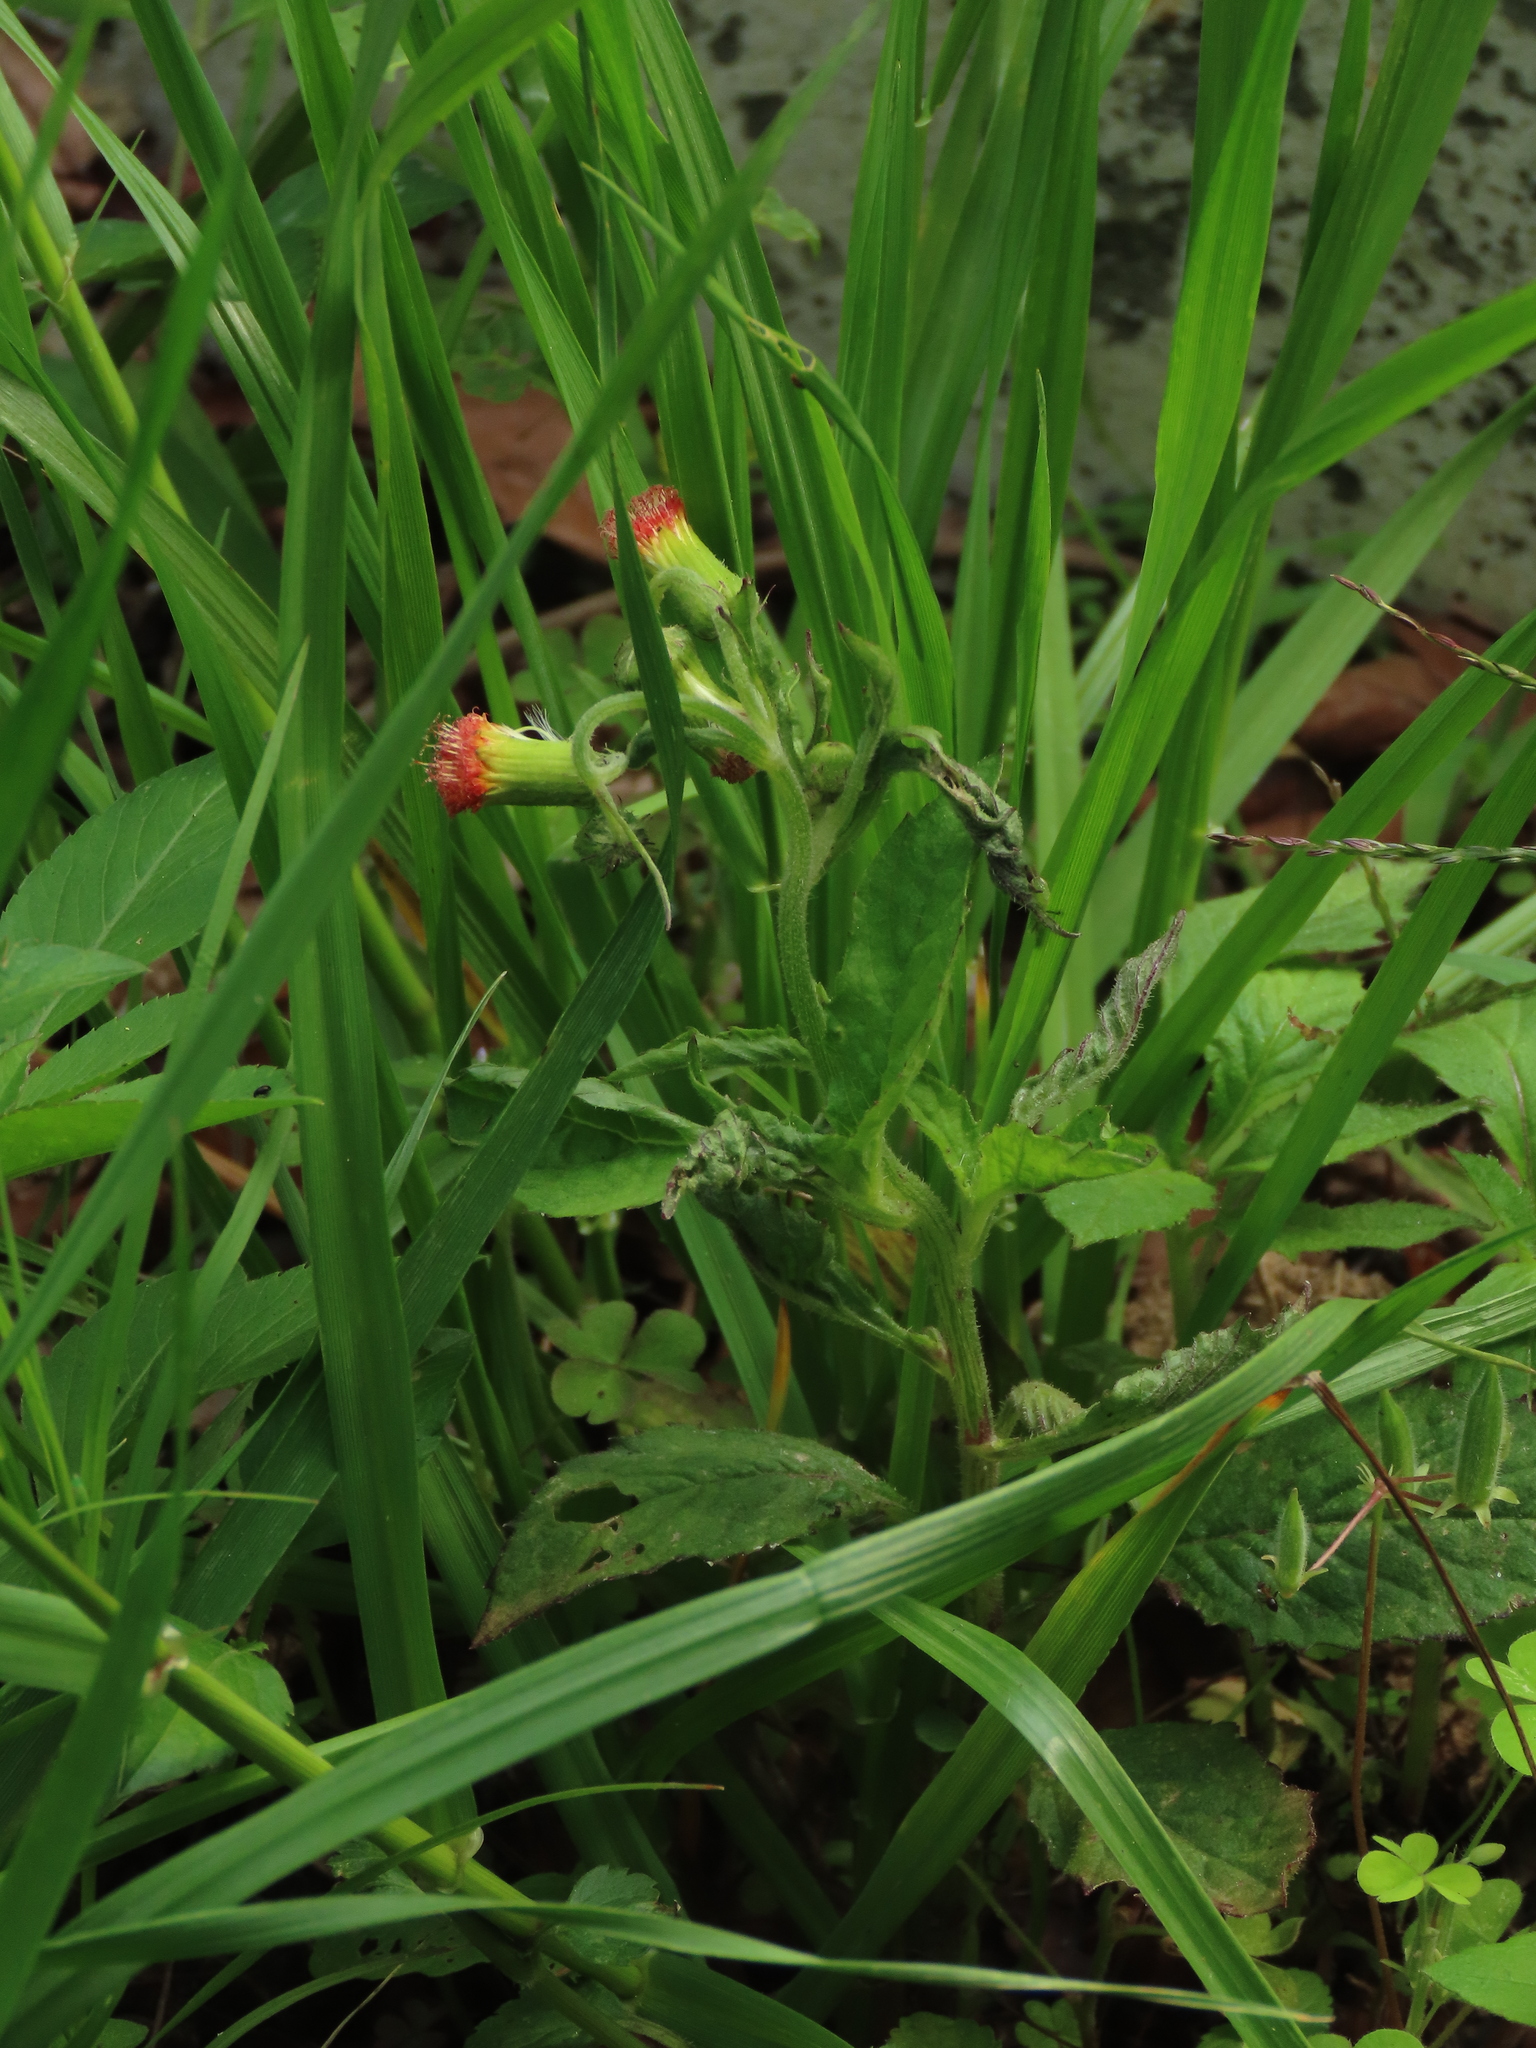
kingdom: Plantae
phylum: Tracheophyta
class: Magnoliopsida
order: Asterales
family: Asteraceae
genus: Crassocephalum
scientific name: Crassocephalum crepidioides
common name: Redflower ragleaf
